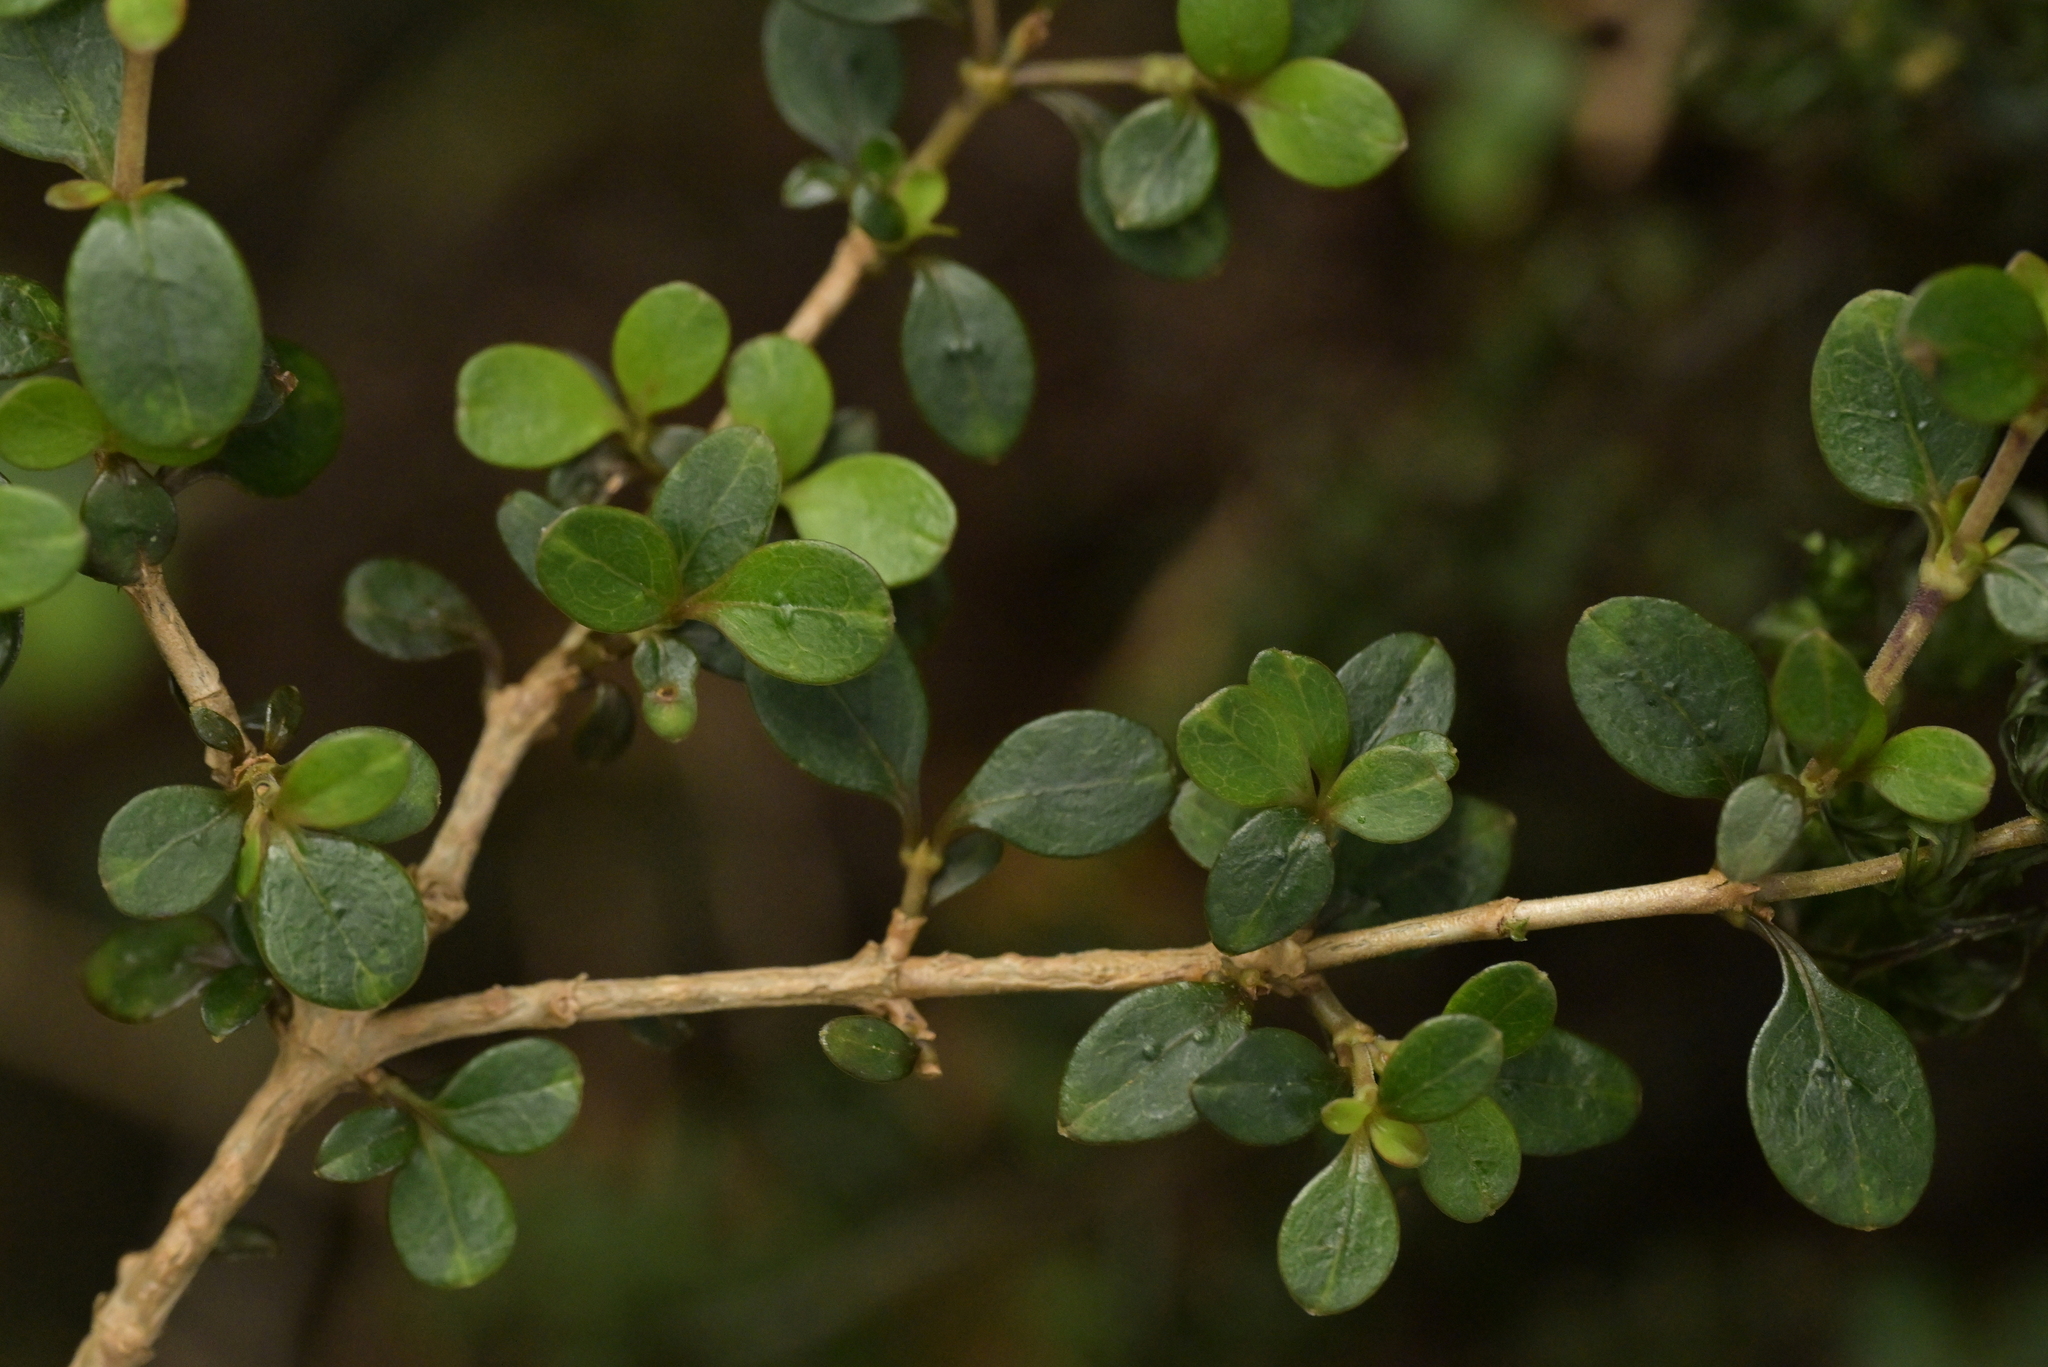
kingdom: Plantae
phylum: Tracheophyta
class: Magnoliopsida
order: Gentianales
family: Rubiaceae
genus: Coprosma
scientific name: Coprosma colensoi
